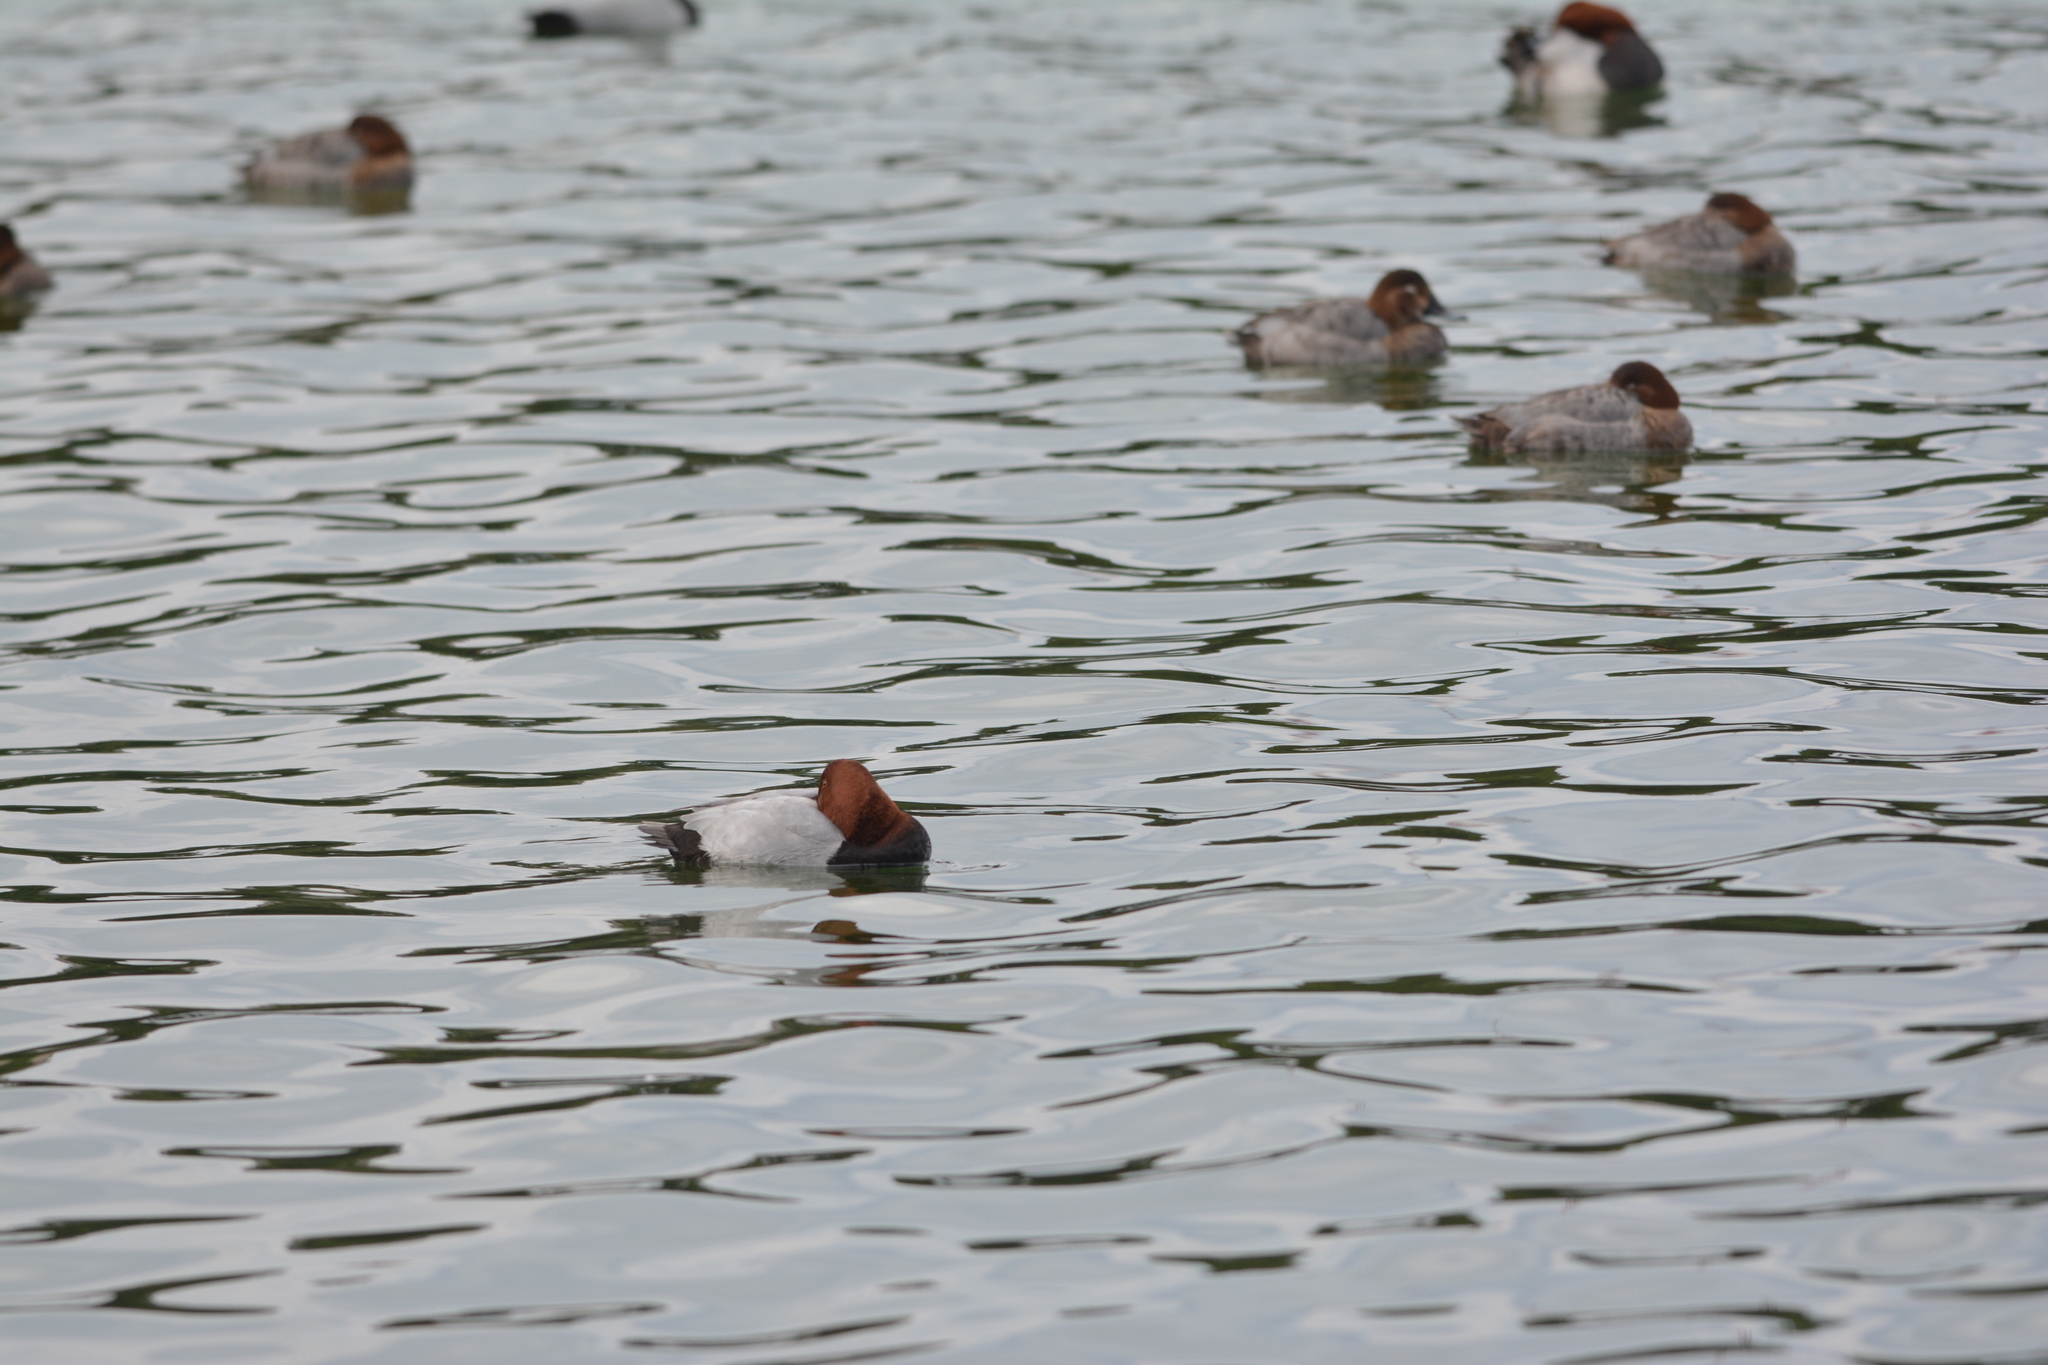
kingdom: Animalia
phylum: Chordata
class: Aves
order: Anseriformes
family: Anatidae
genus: Aythya
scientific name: Aythya ferina
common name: Common pochard
